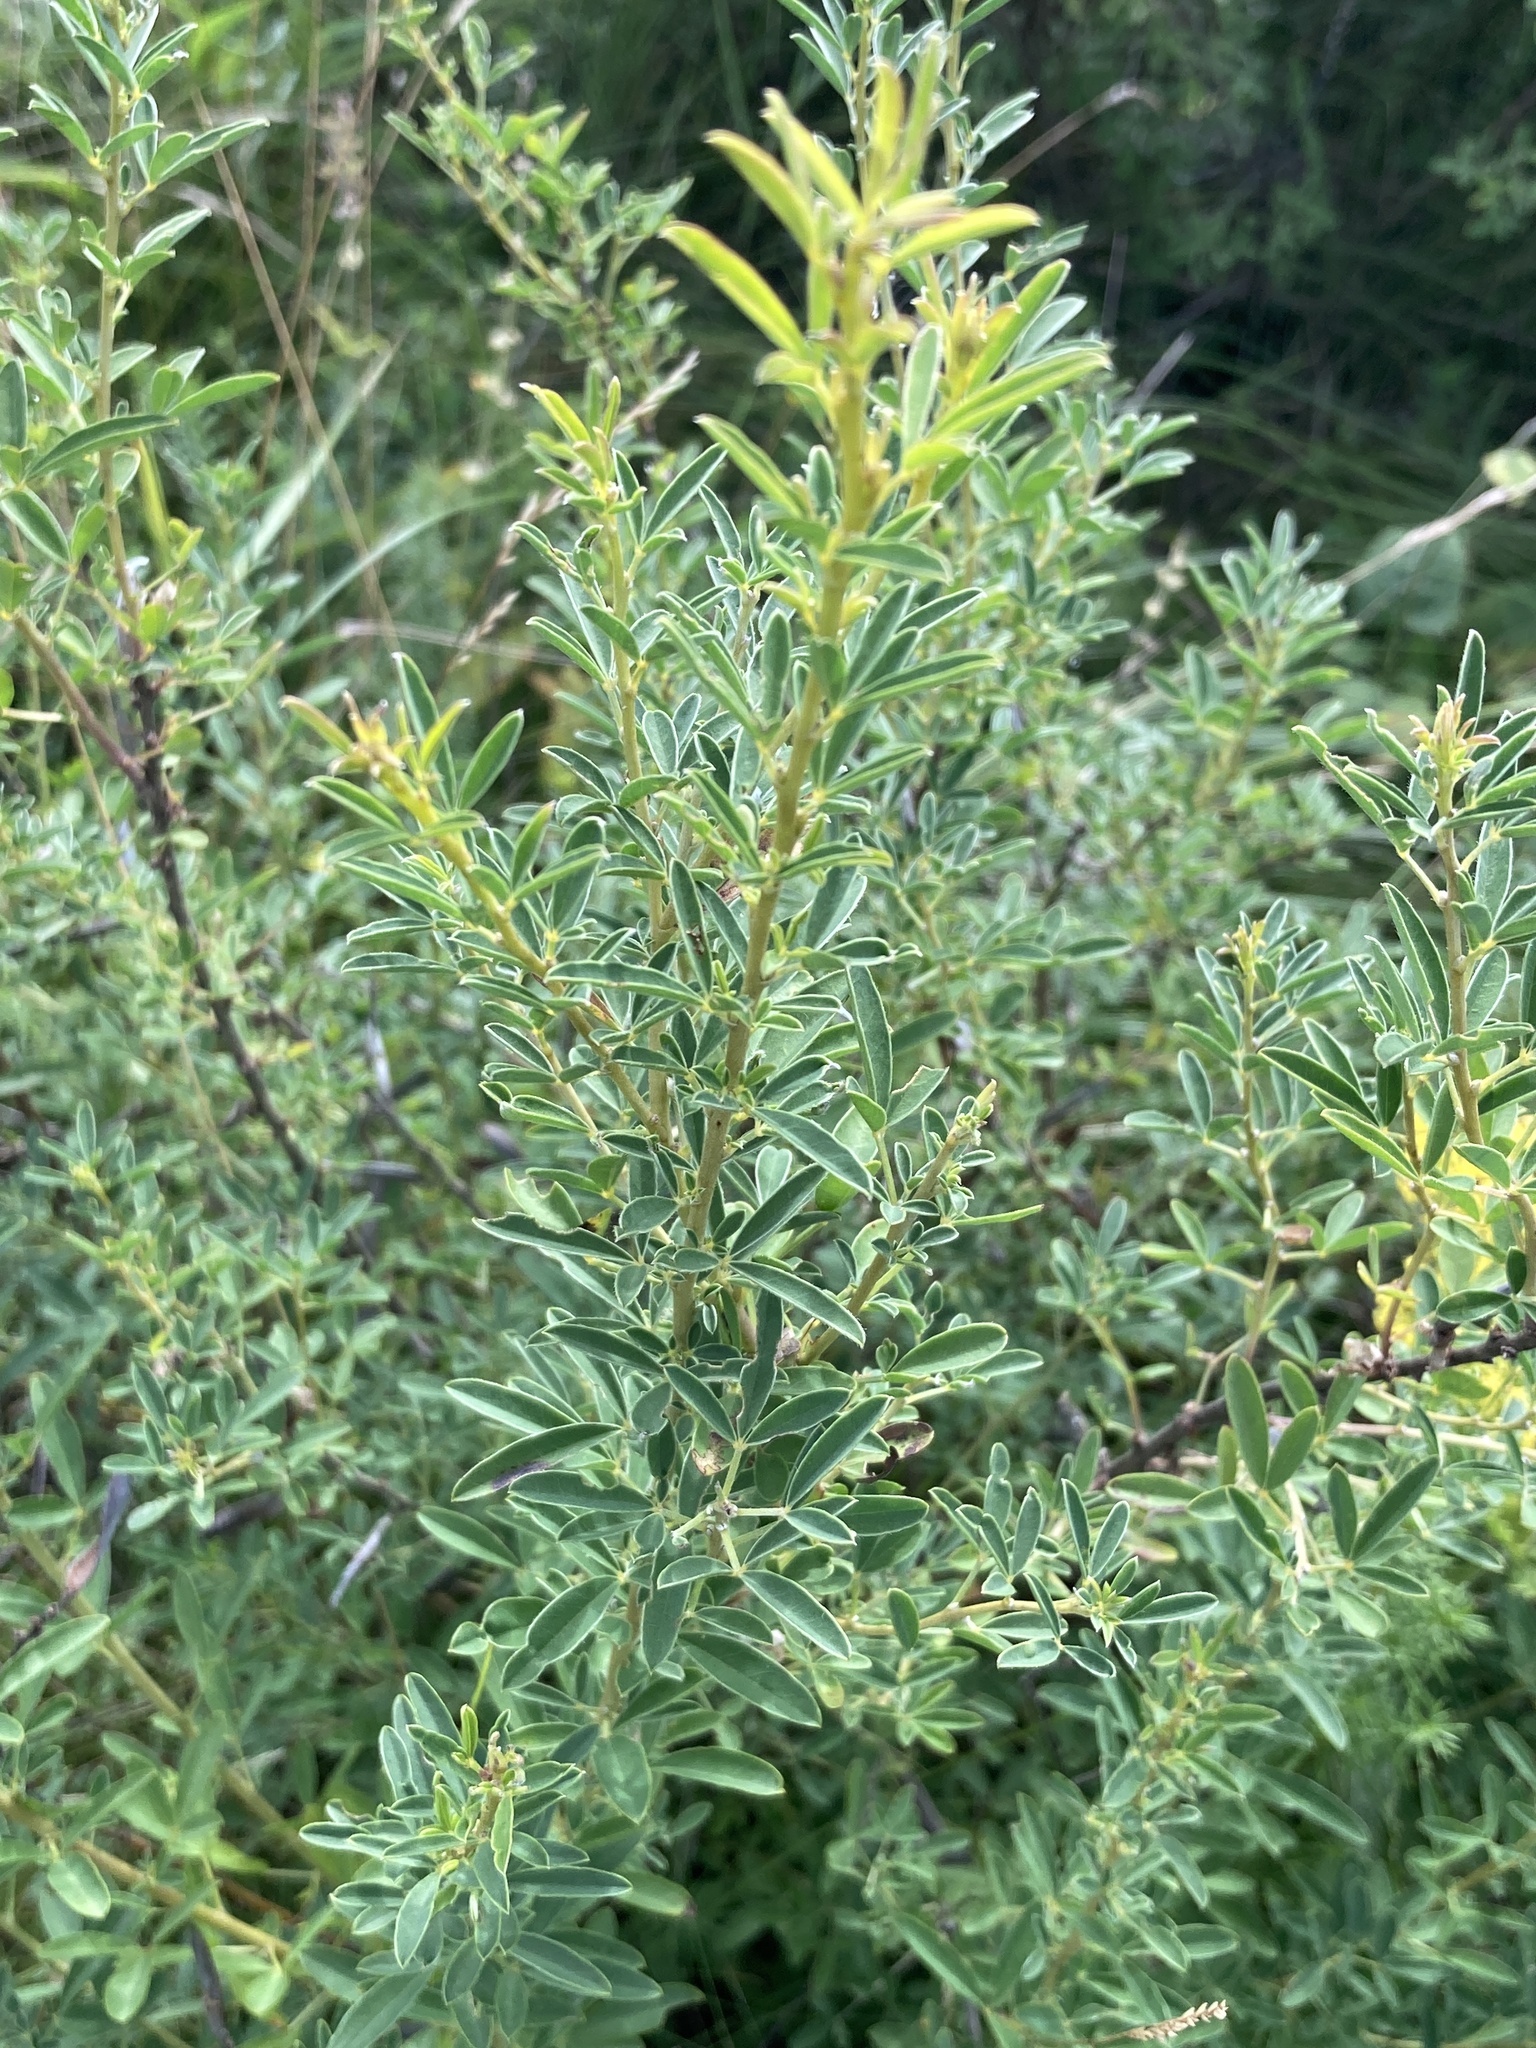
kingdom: Plantae
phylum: Tracheophyta
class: Magnoliopsida
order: Fabales
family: Fabaceae
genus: Chamaecytisus
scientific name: Chamaecytisus ruthenicus
